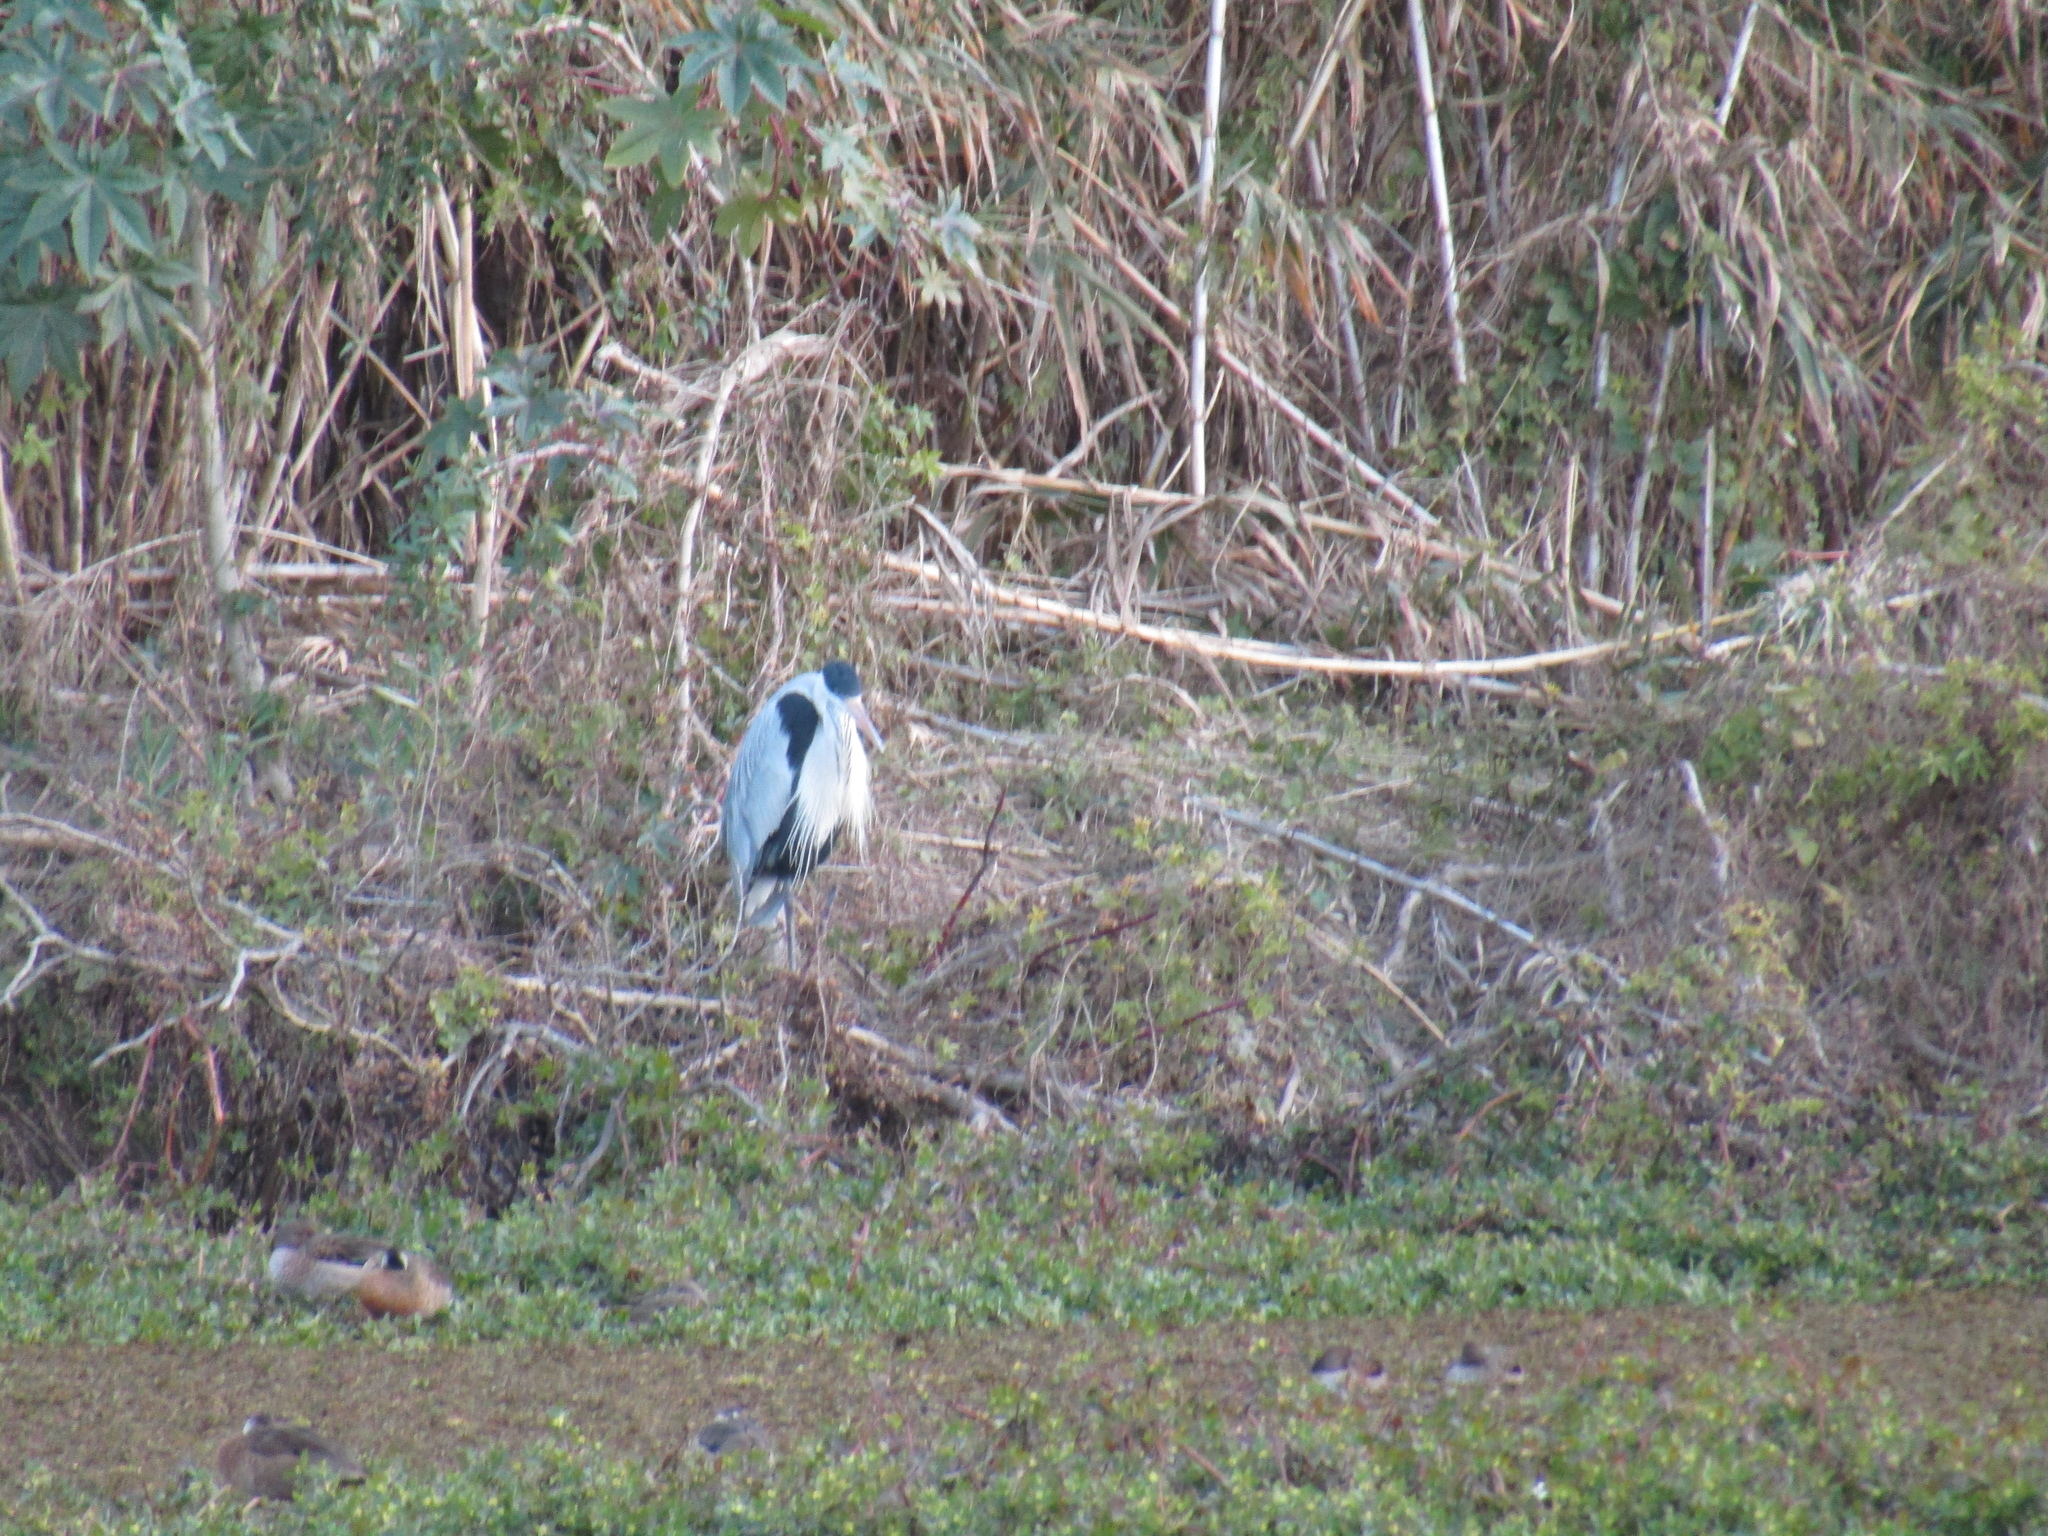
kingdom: Animalia
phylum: Chordata
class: Aves
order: Pelecaniformes
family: Ardeidae
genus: Ardea
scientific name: Ardea cocoi
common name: Cocoi heron
